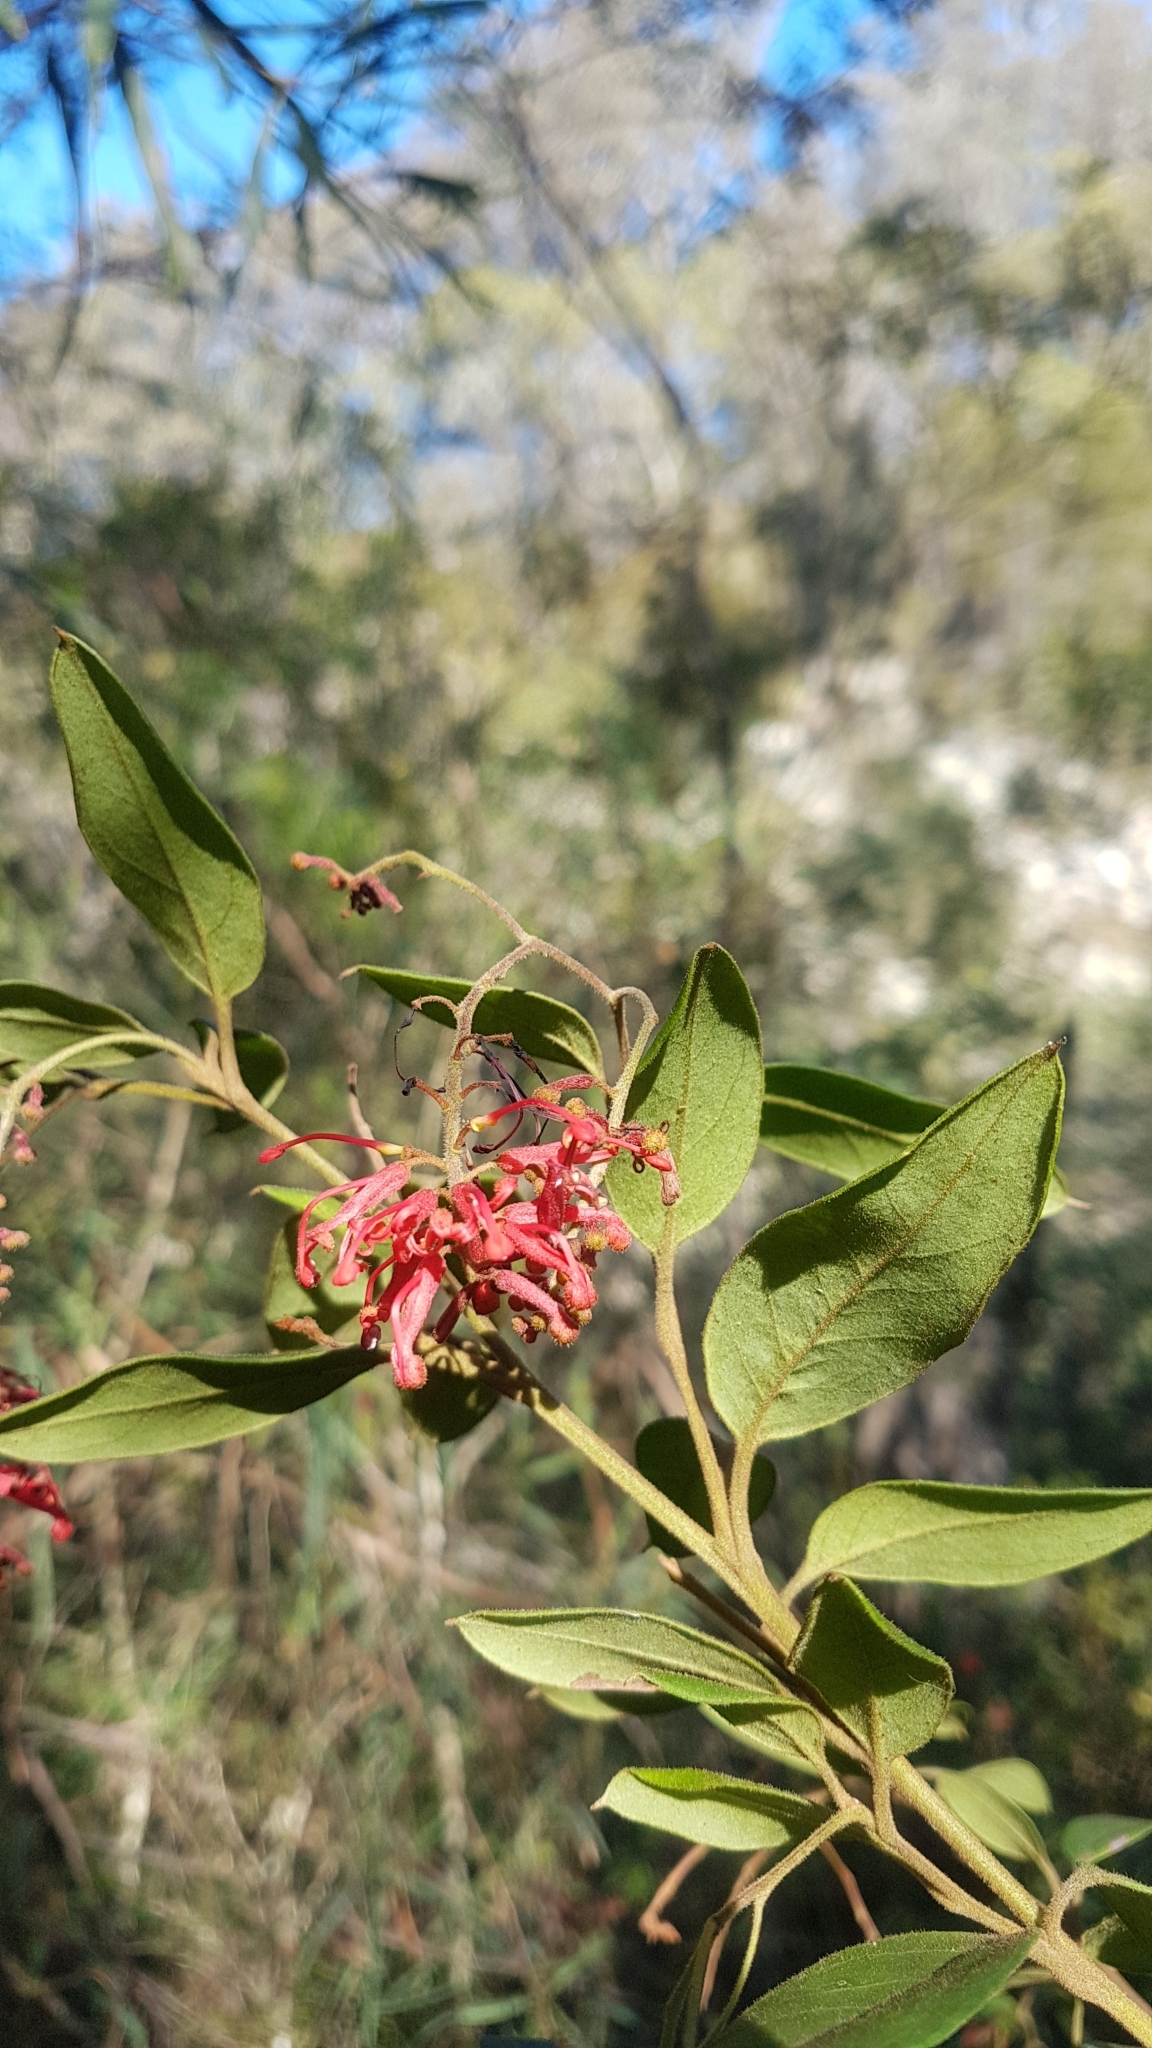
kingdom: Plantae
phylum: Tracheophyta
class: Magnoliopsida
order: Proteales
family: Proteaceae
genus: Grevillea
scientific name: Grevillea rhyolitica
